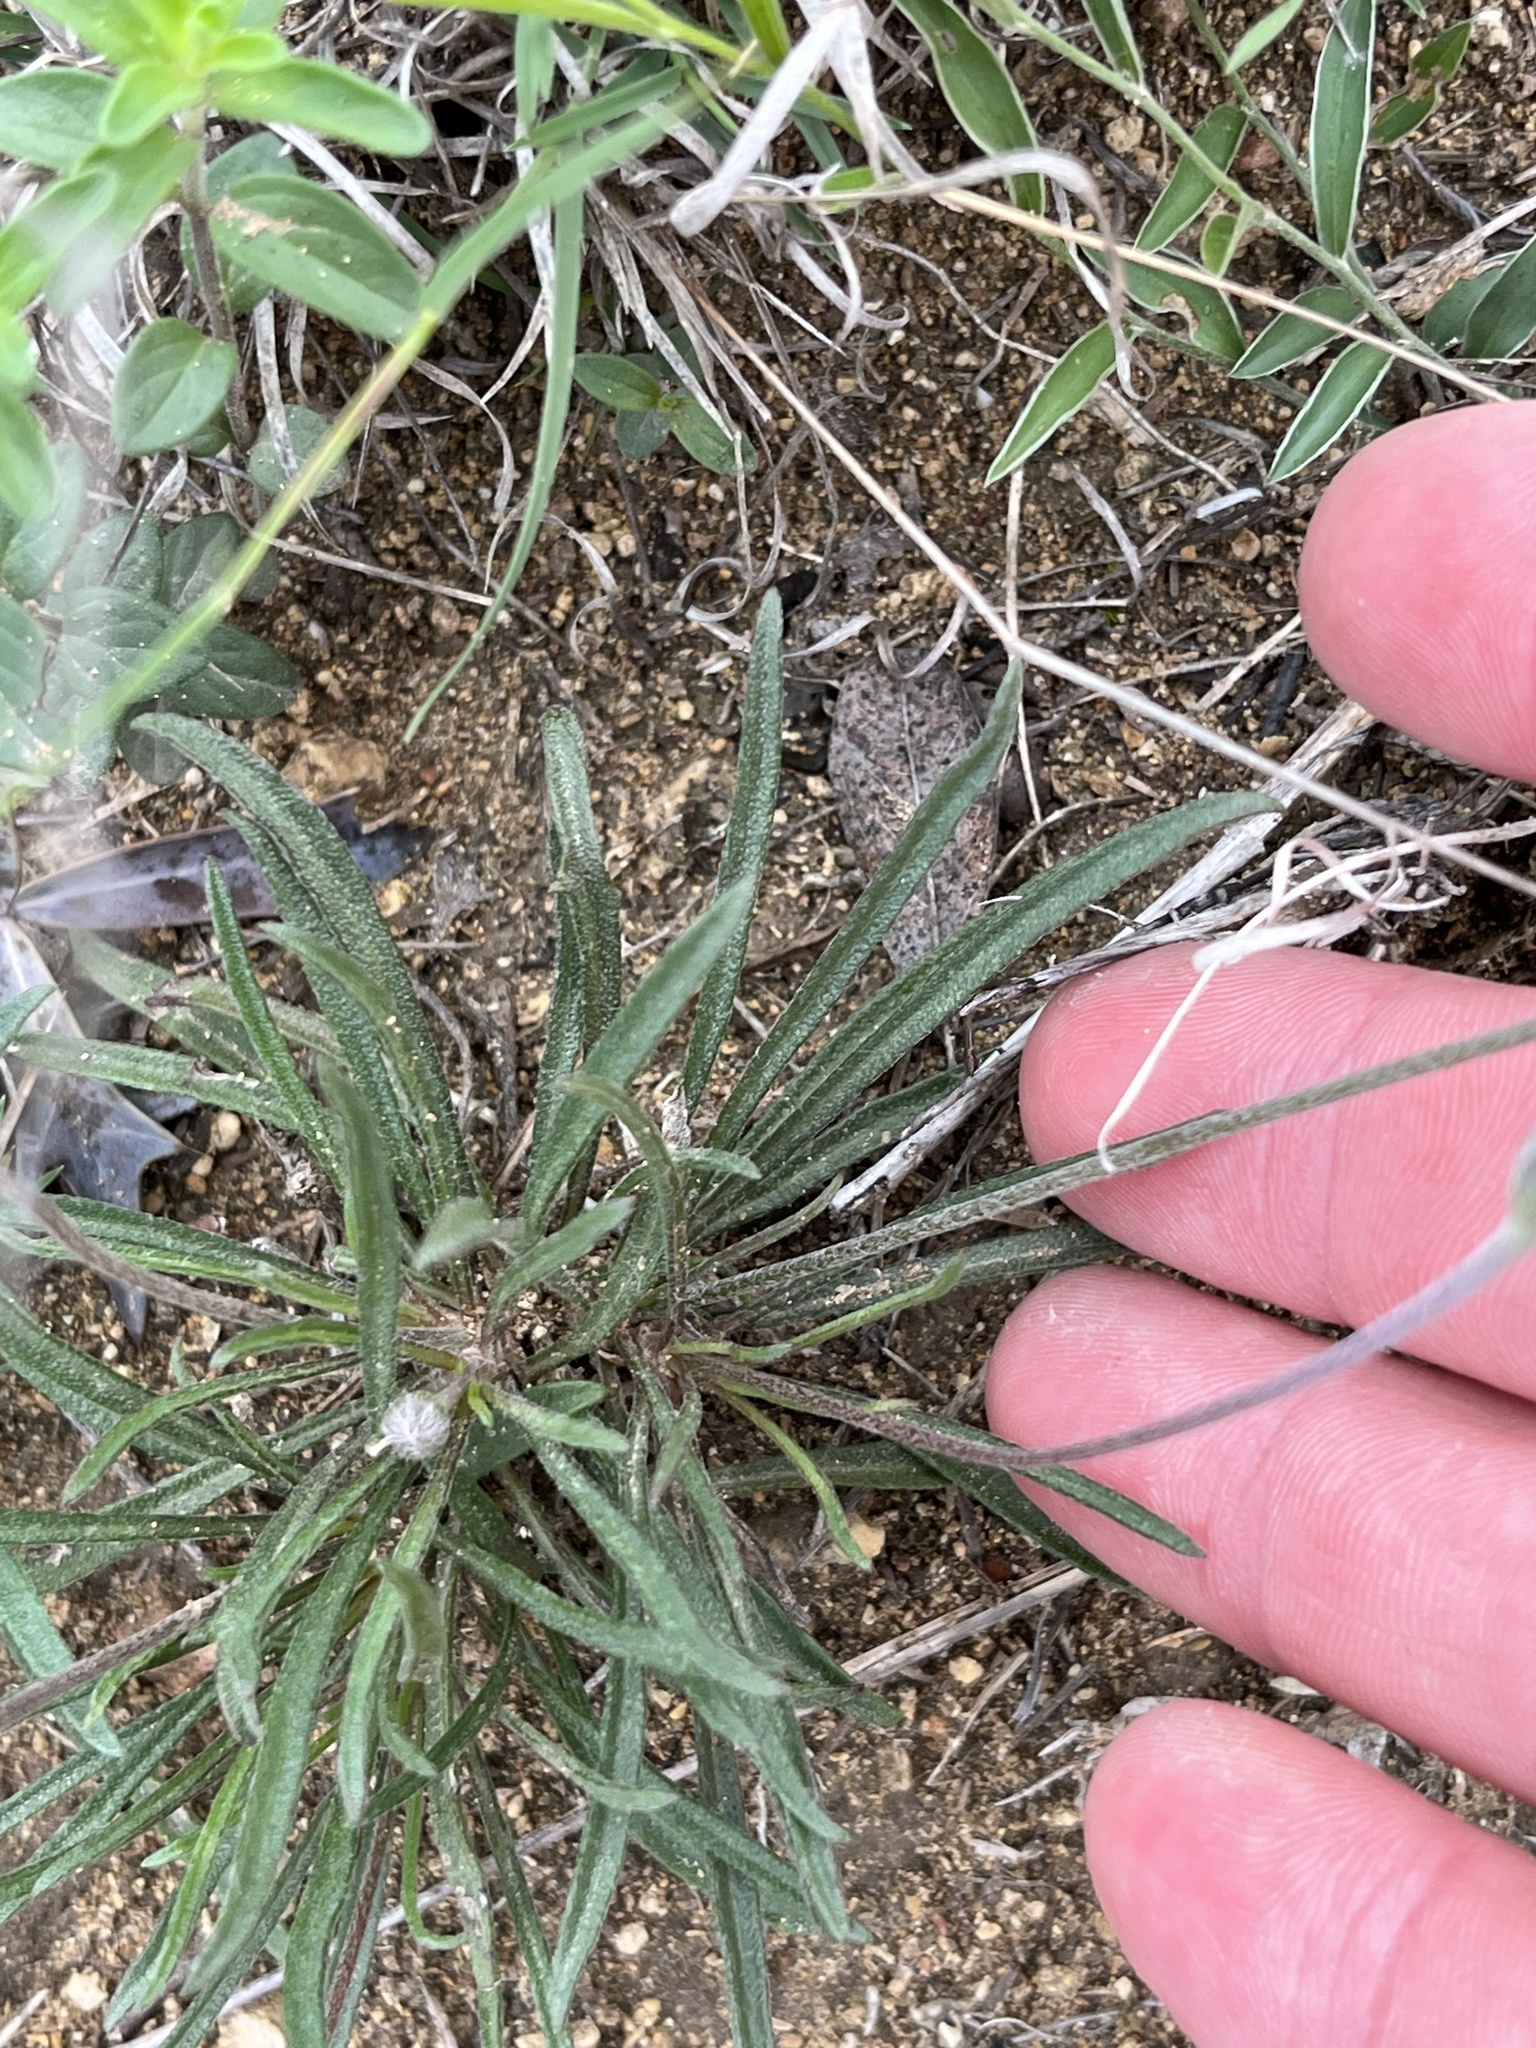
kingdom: Plantae
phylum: Tracheophyta
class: Magnoliopsida
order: Asterales
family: Asteraceae
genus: Tetraneuris
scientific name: Tetraneuris scaposa
